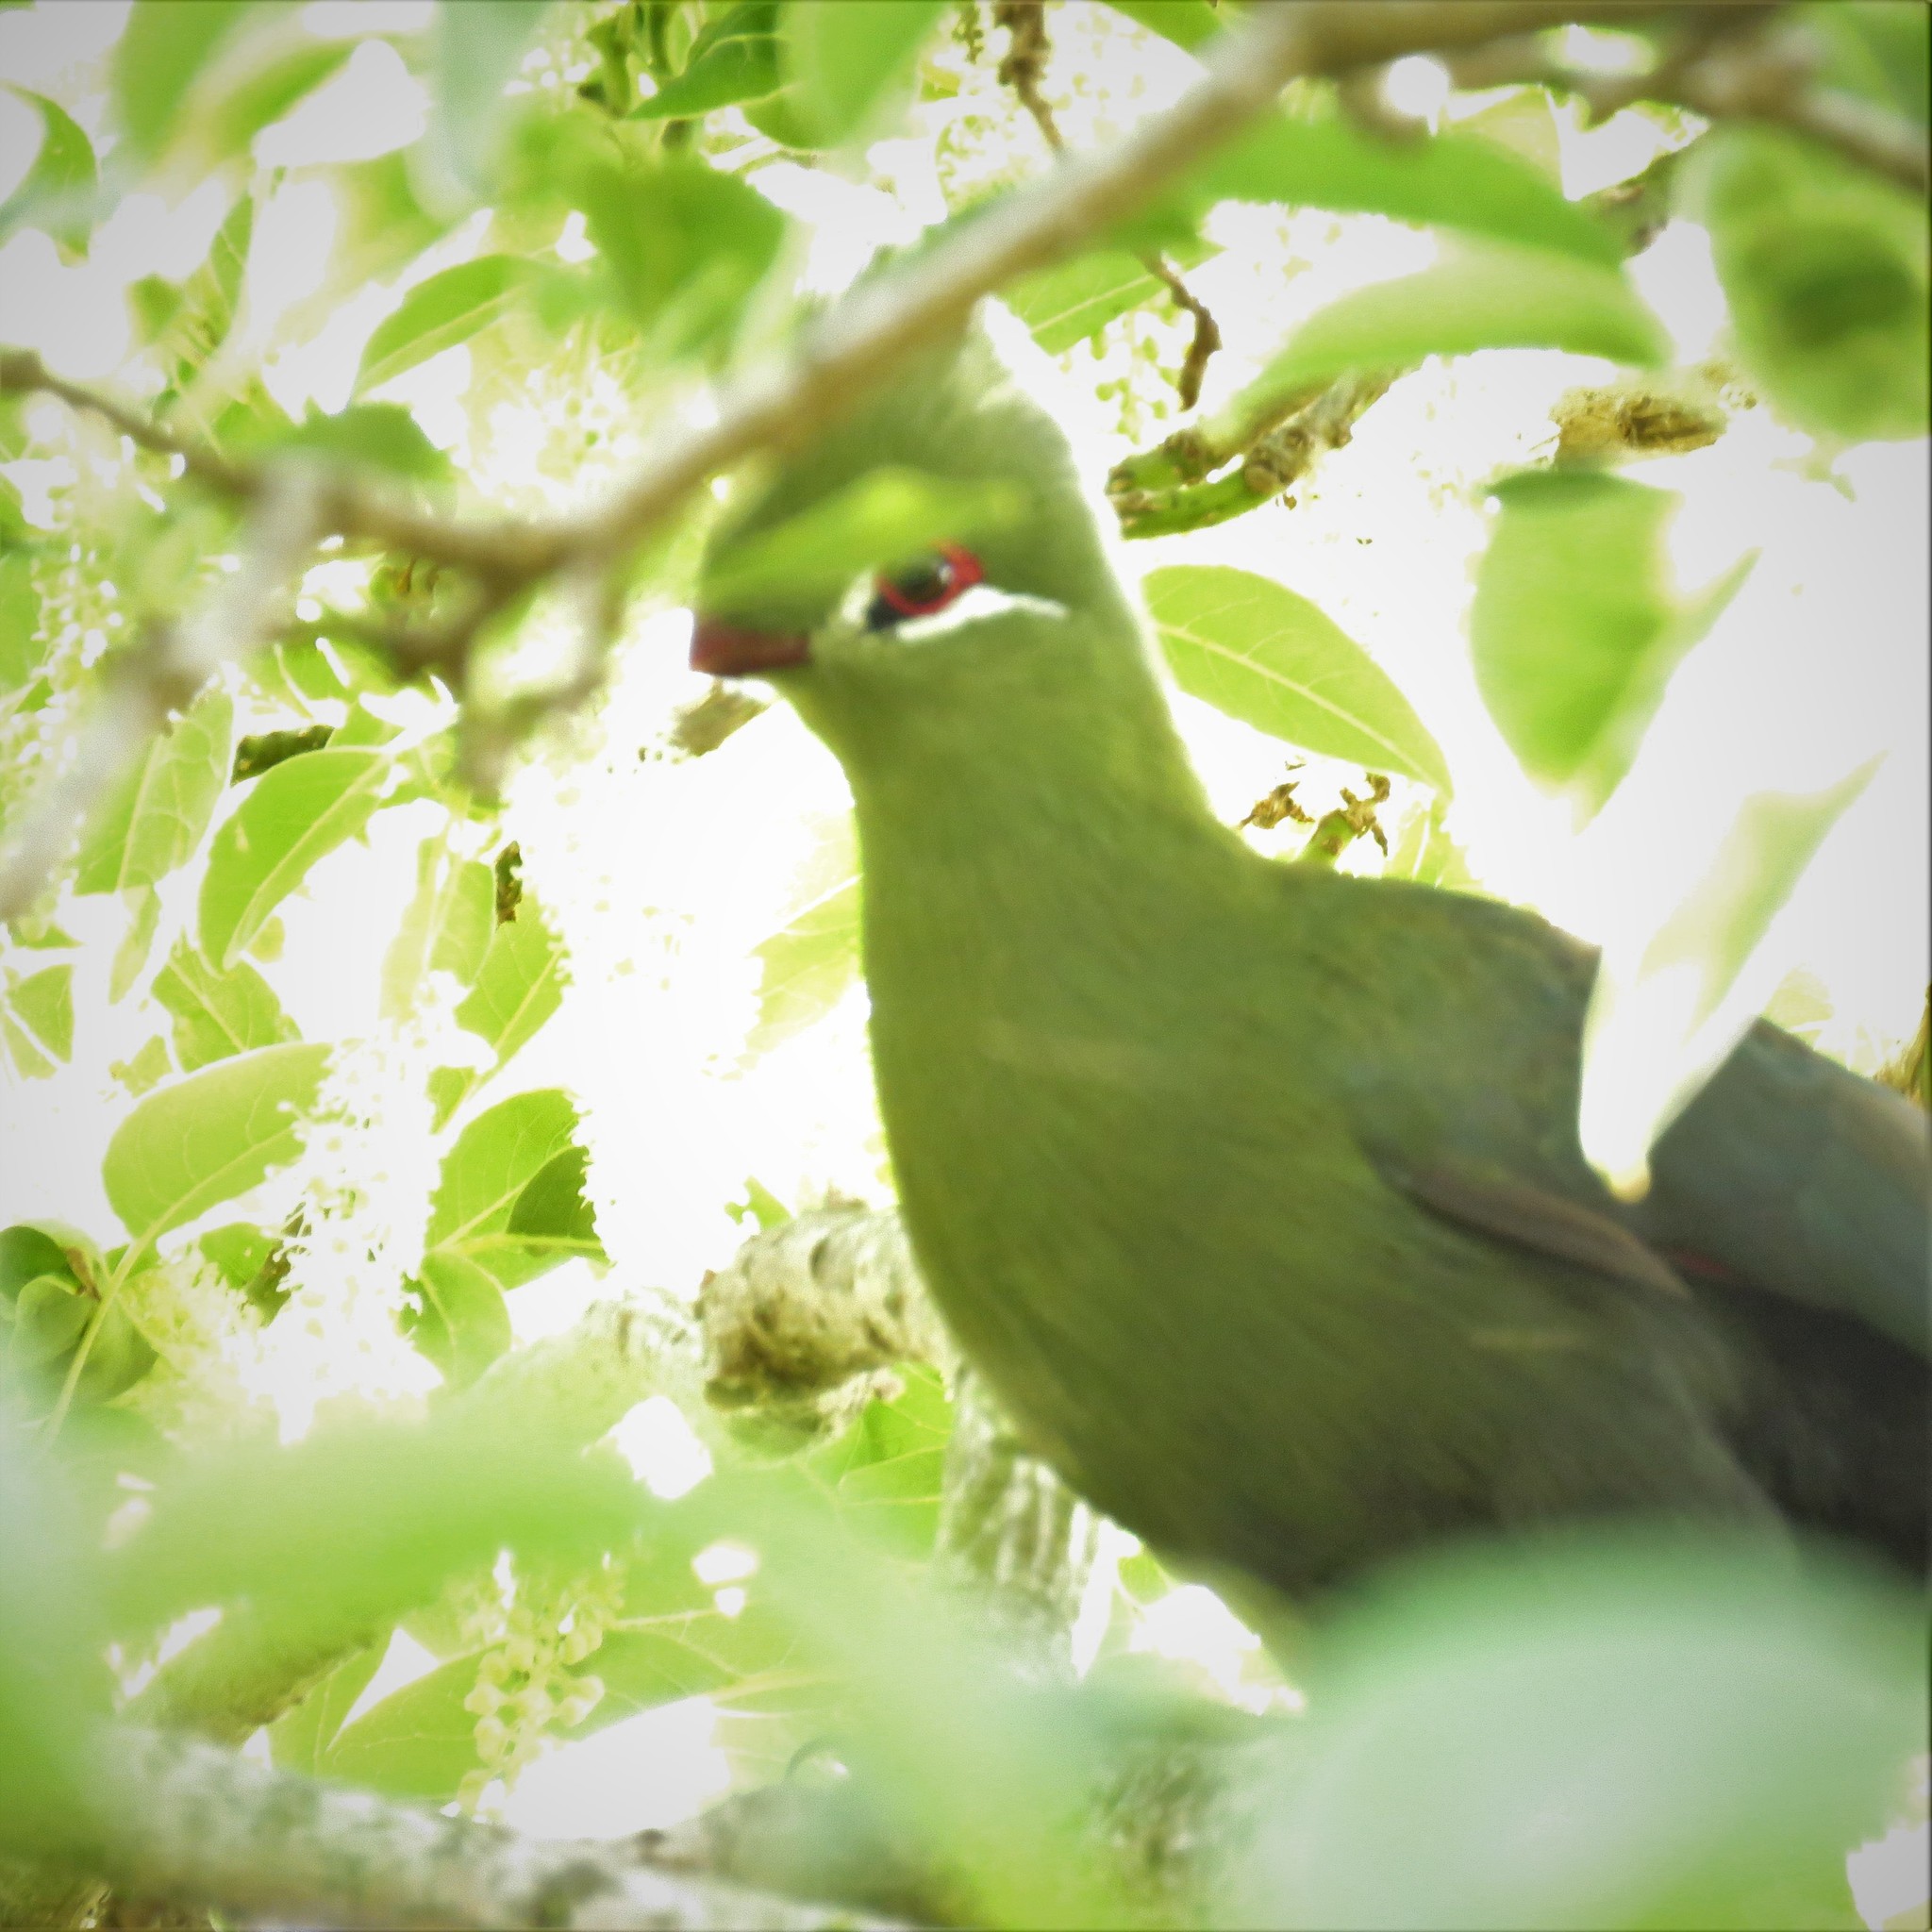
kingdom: Animalia
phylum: Chordata
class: Aves
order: Musophagiformes
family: Musophagidae
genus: Tauraco
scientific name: Tauraco corythaix
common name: Knysna turaco
